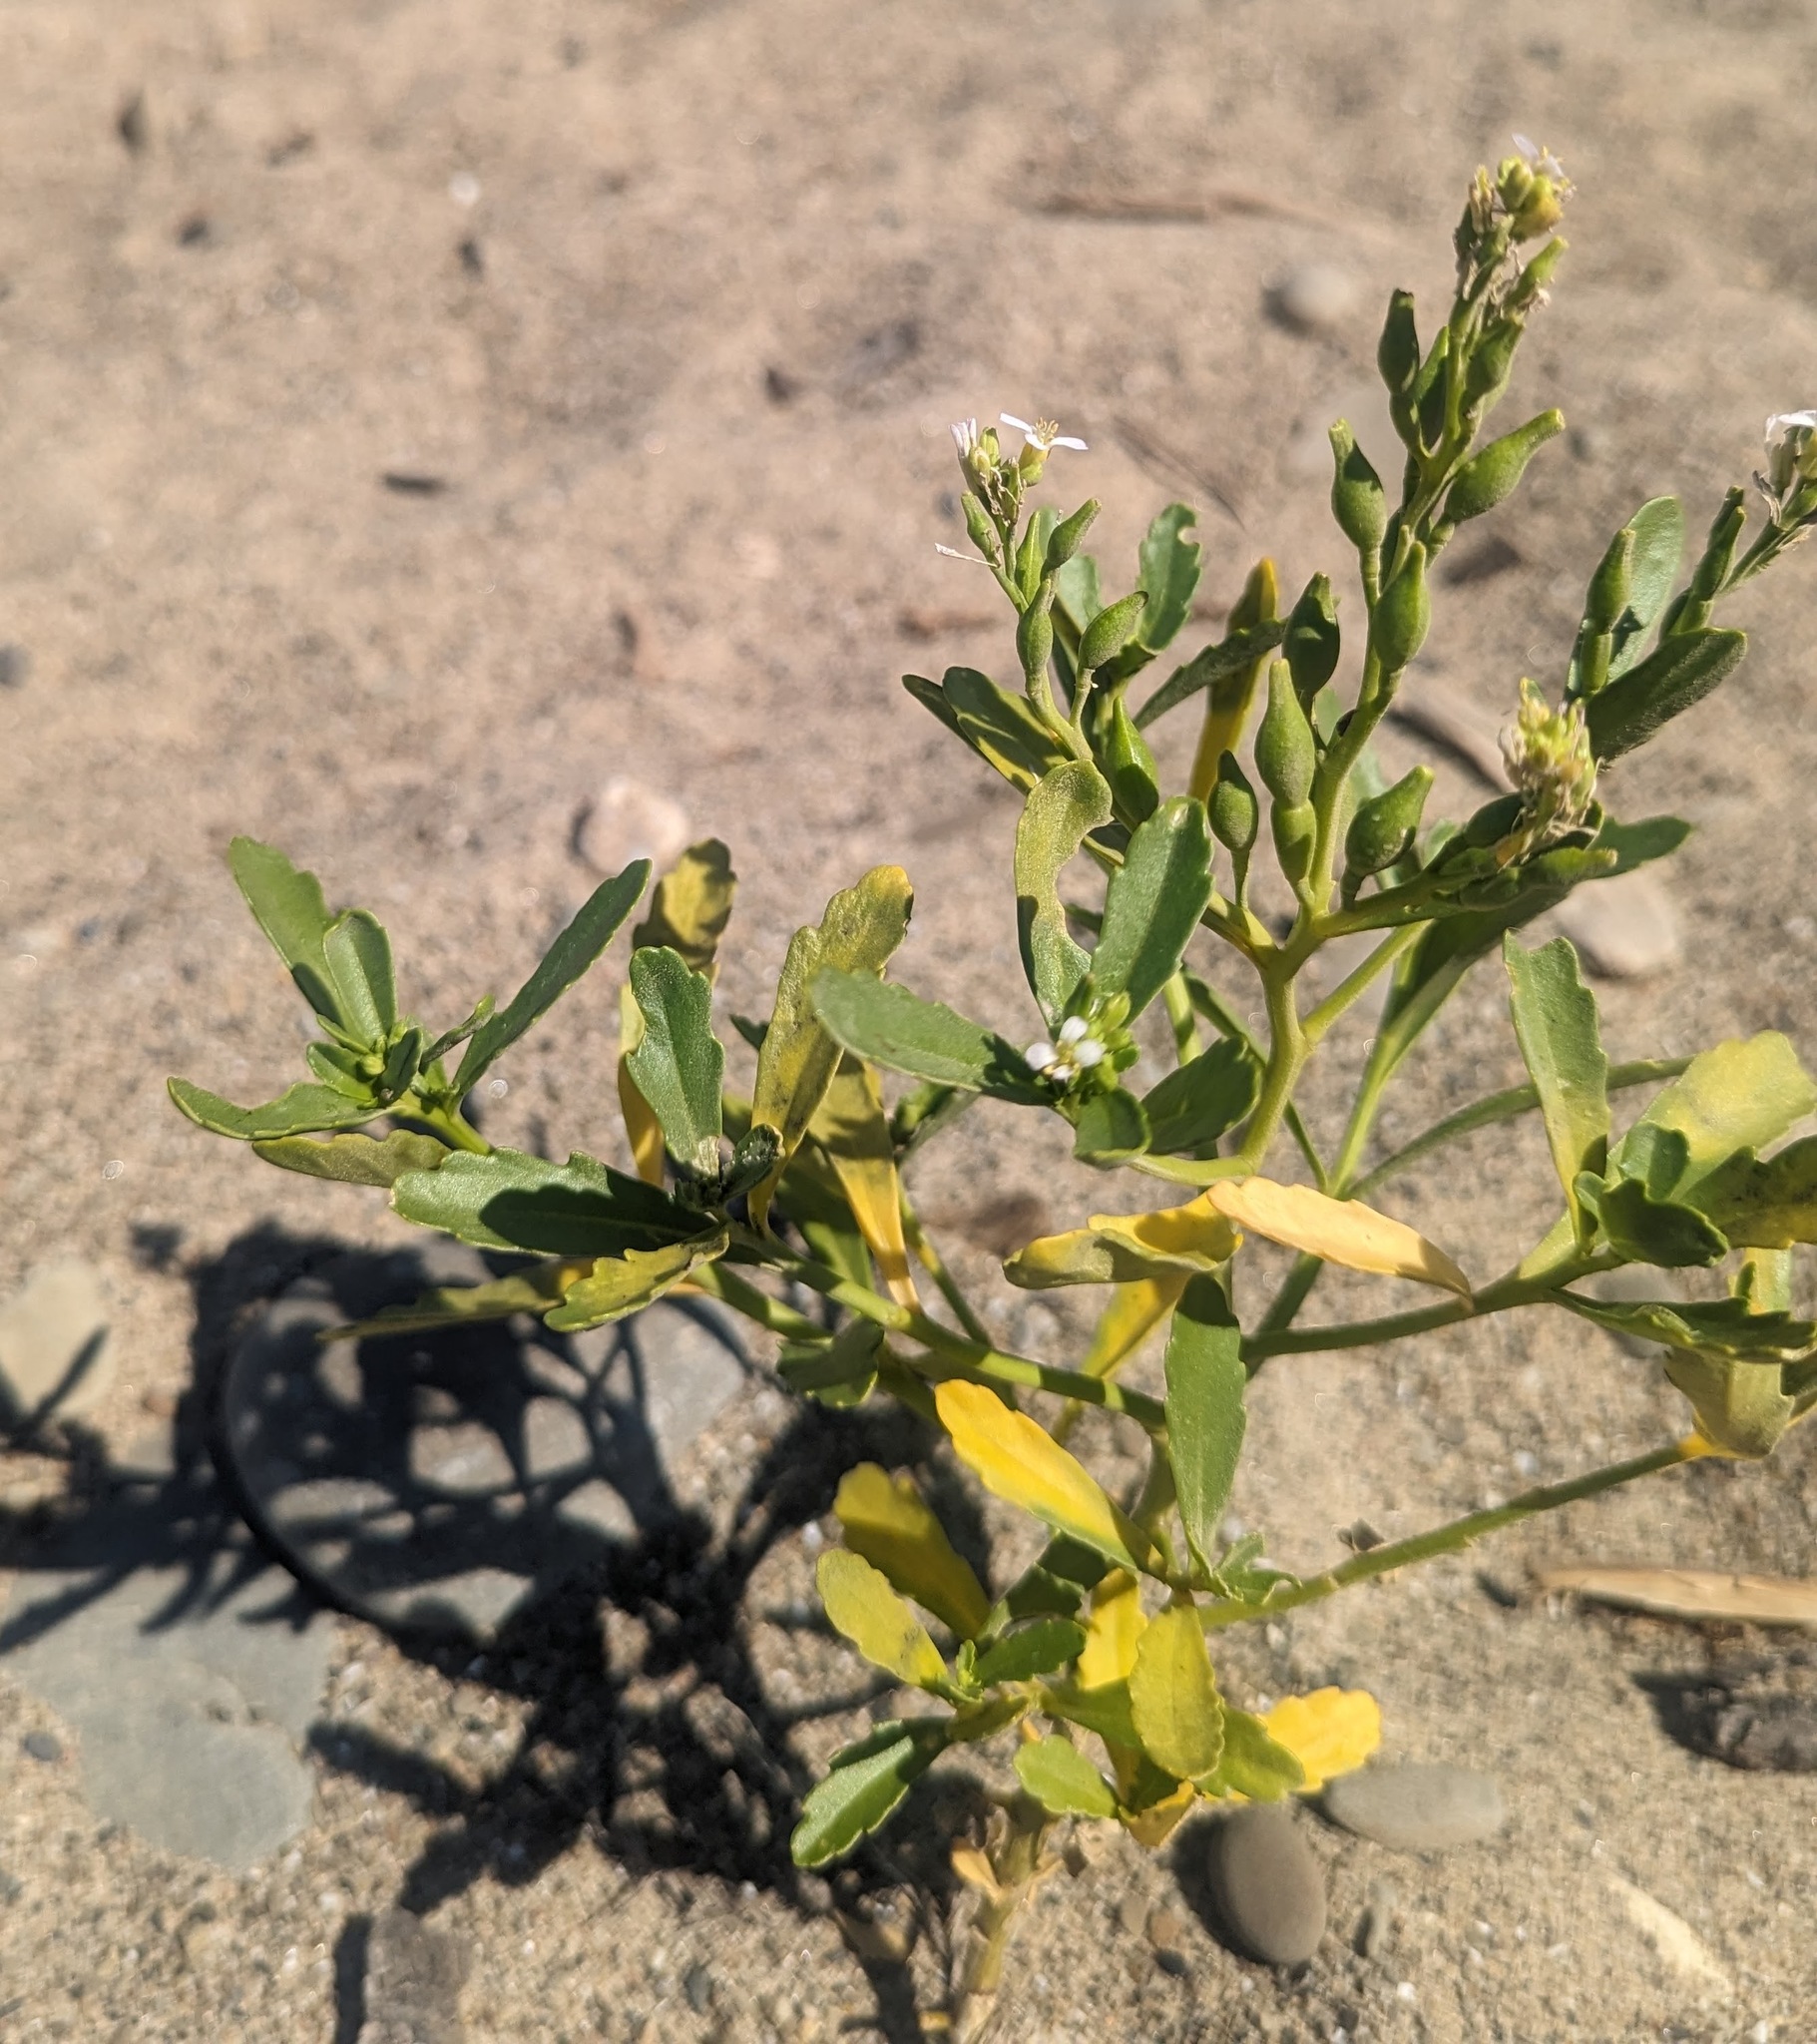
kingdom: Plantae
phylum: Tracheophyta
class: Magnoliopsida
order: Brassicales
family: Brassicaceae
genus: Cakile
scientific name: Cakile edentula
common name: American sea rocket
